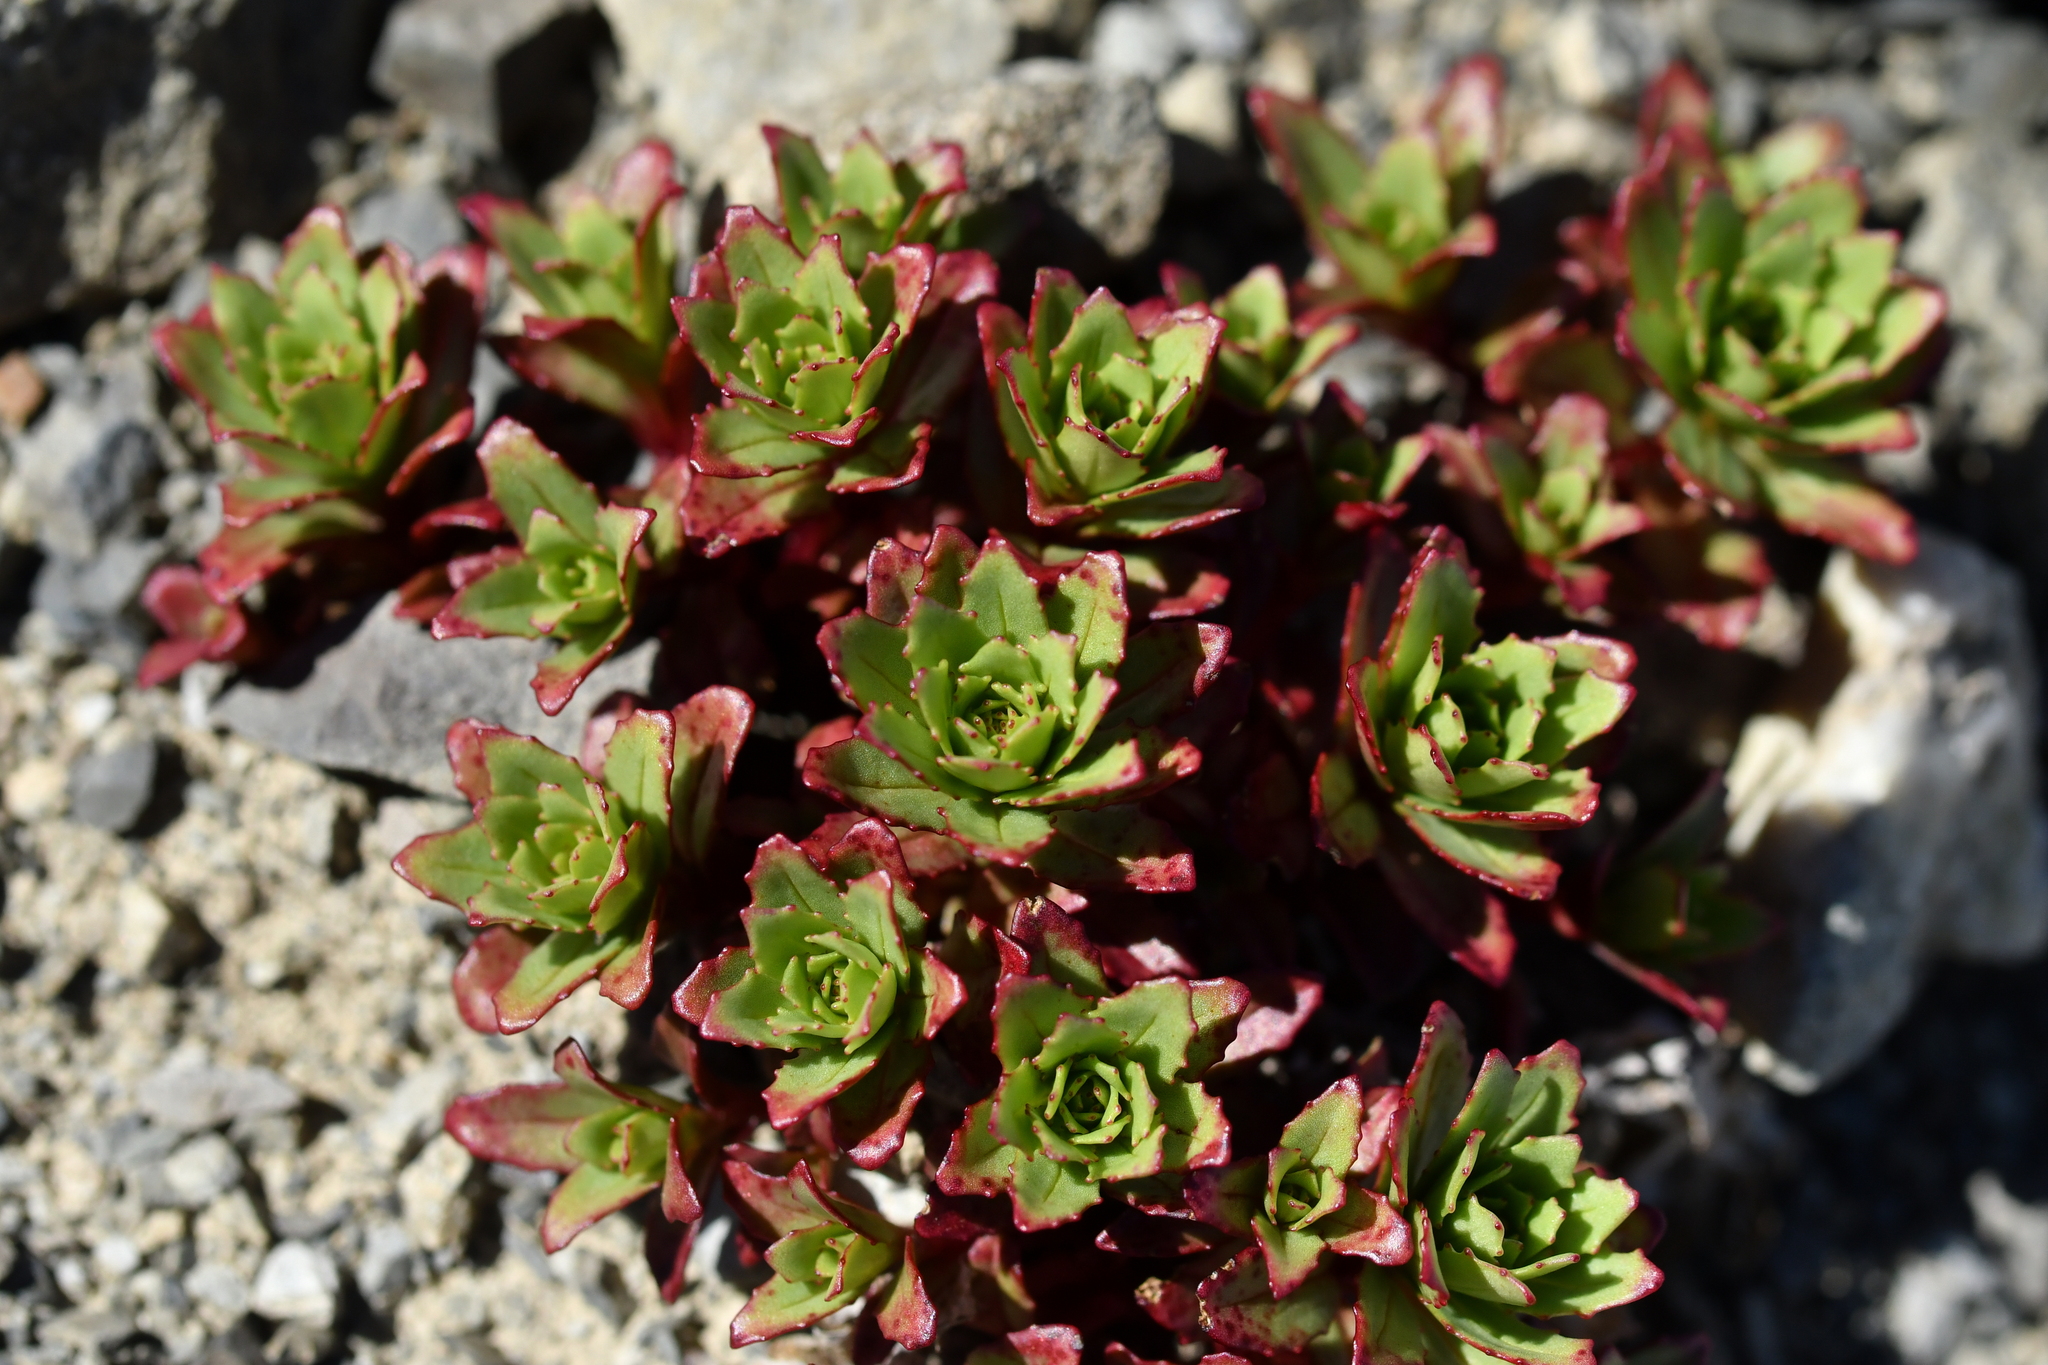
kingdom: Plantae
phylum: Tracheophyta
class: Magnoliopsida
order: Myrtales
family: Onagraceae
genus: Epilobium
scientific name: Epilobium pycnostachyum
